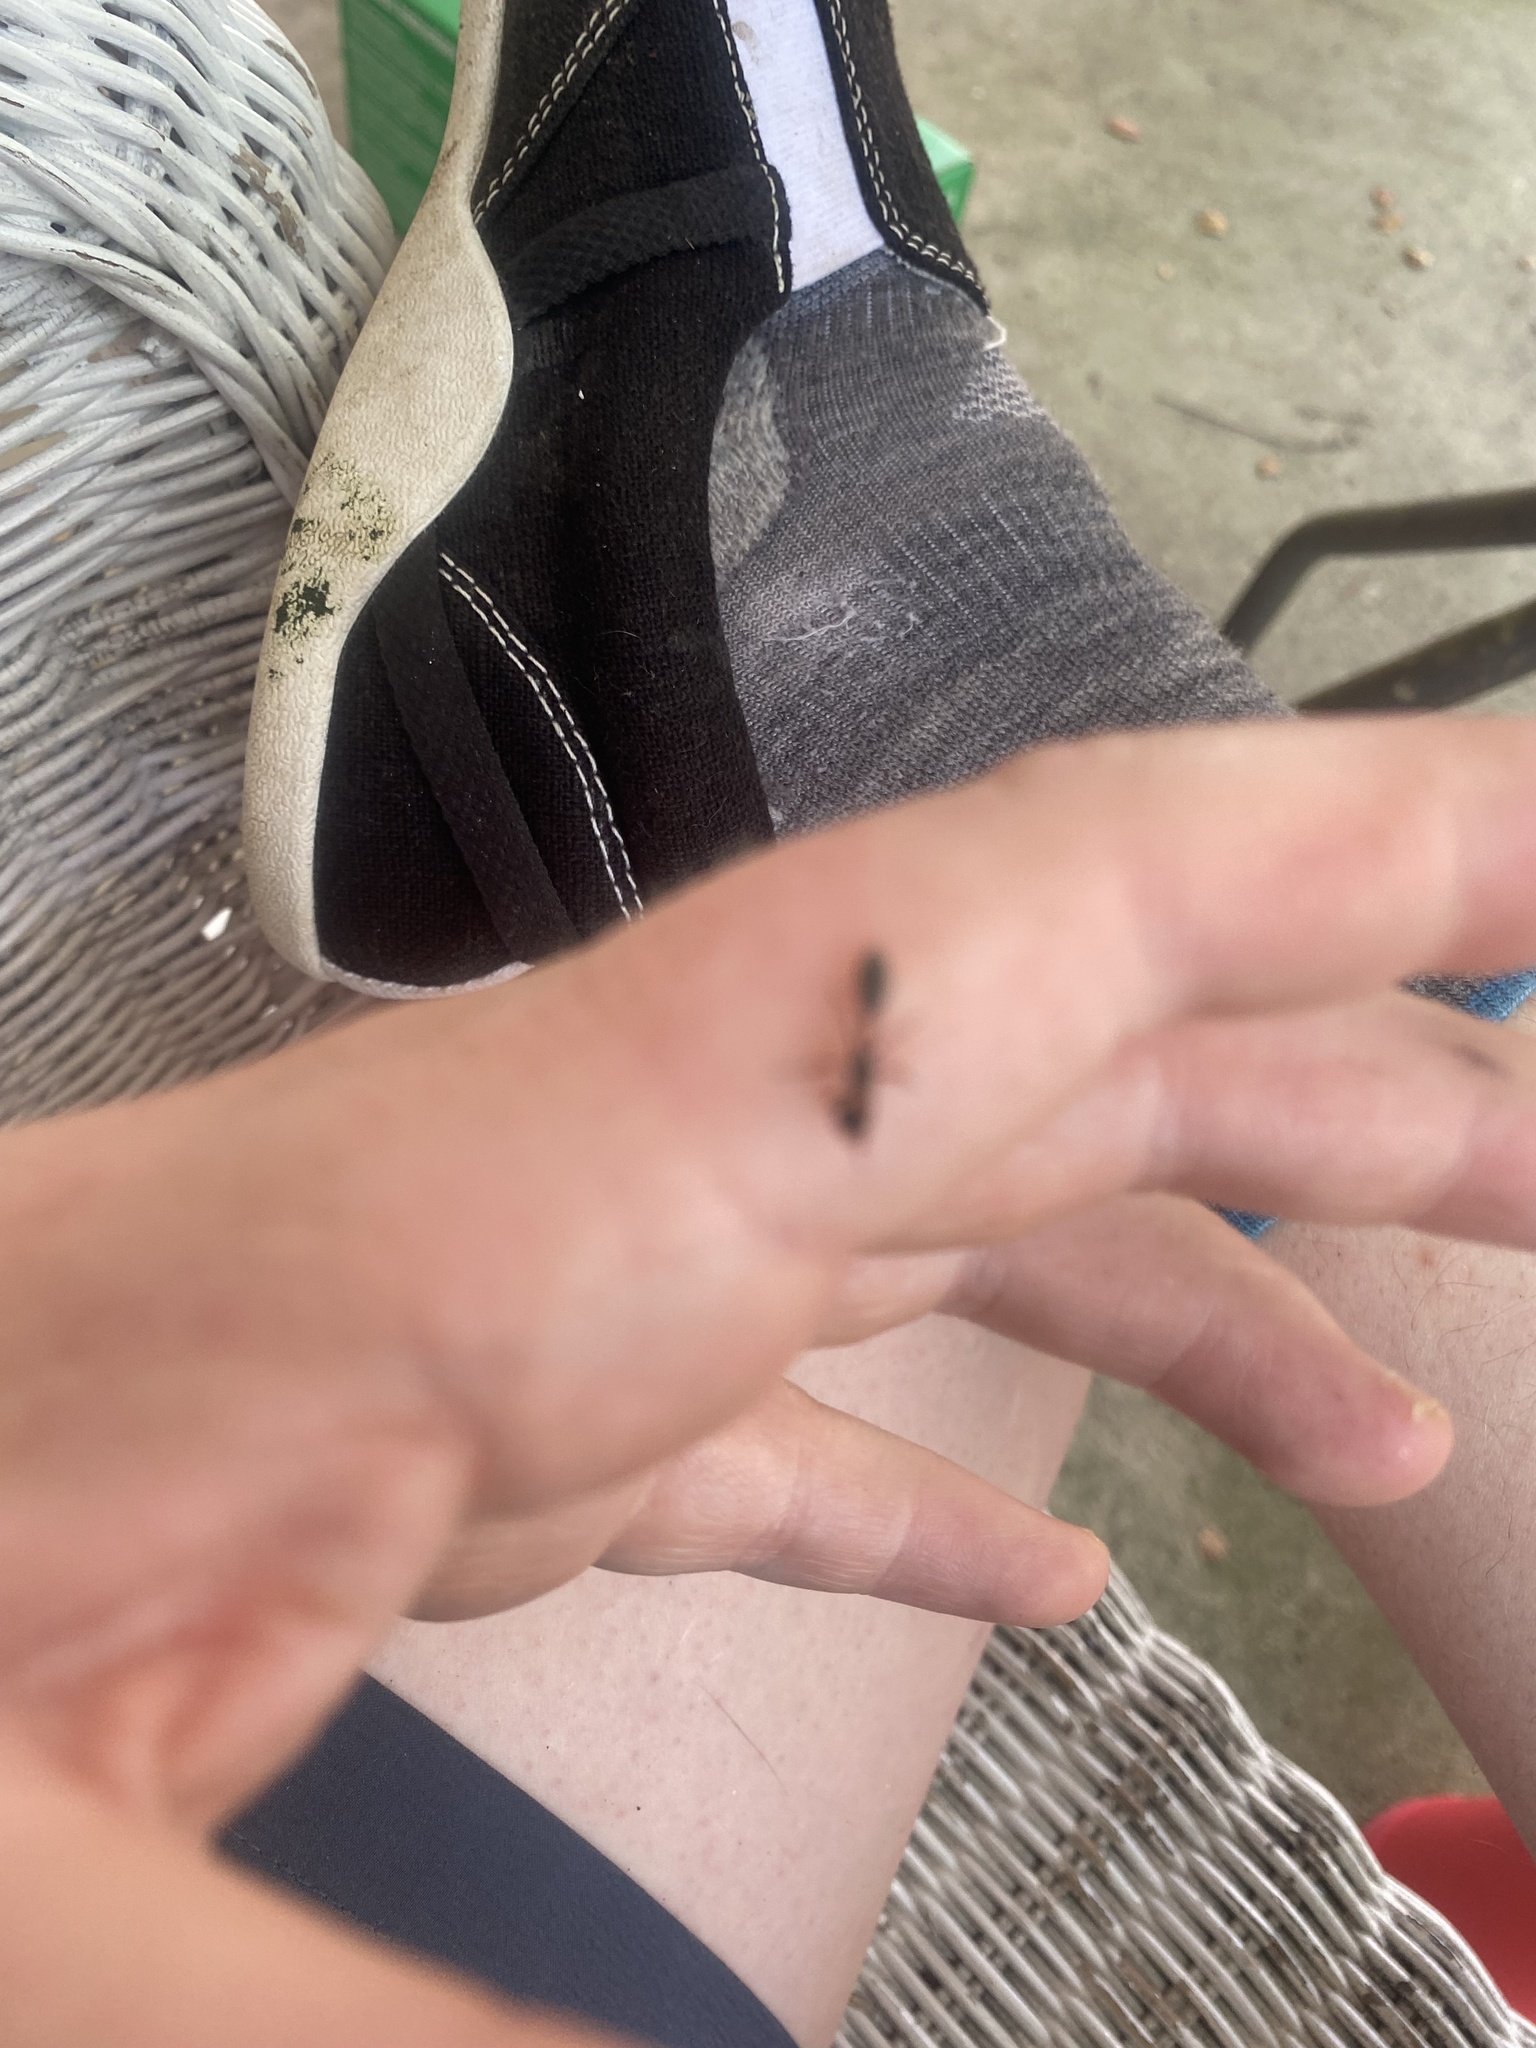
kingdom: Animalia
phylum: Arthropoda
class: Insecta
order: Hymenoptera
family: Formicidae
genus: Pseudomyrmex
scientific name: Pseudomyrmex gracilis
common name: Graceful twig ant
